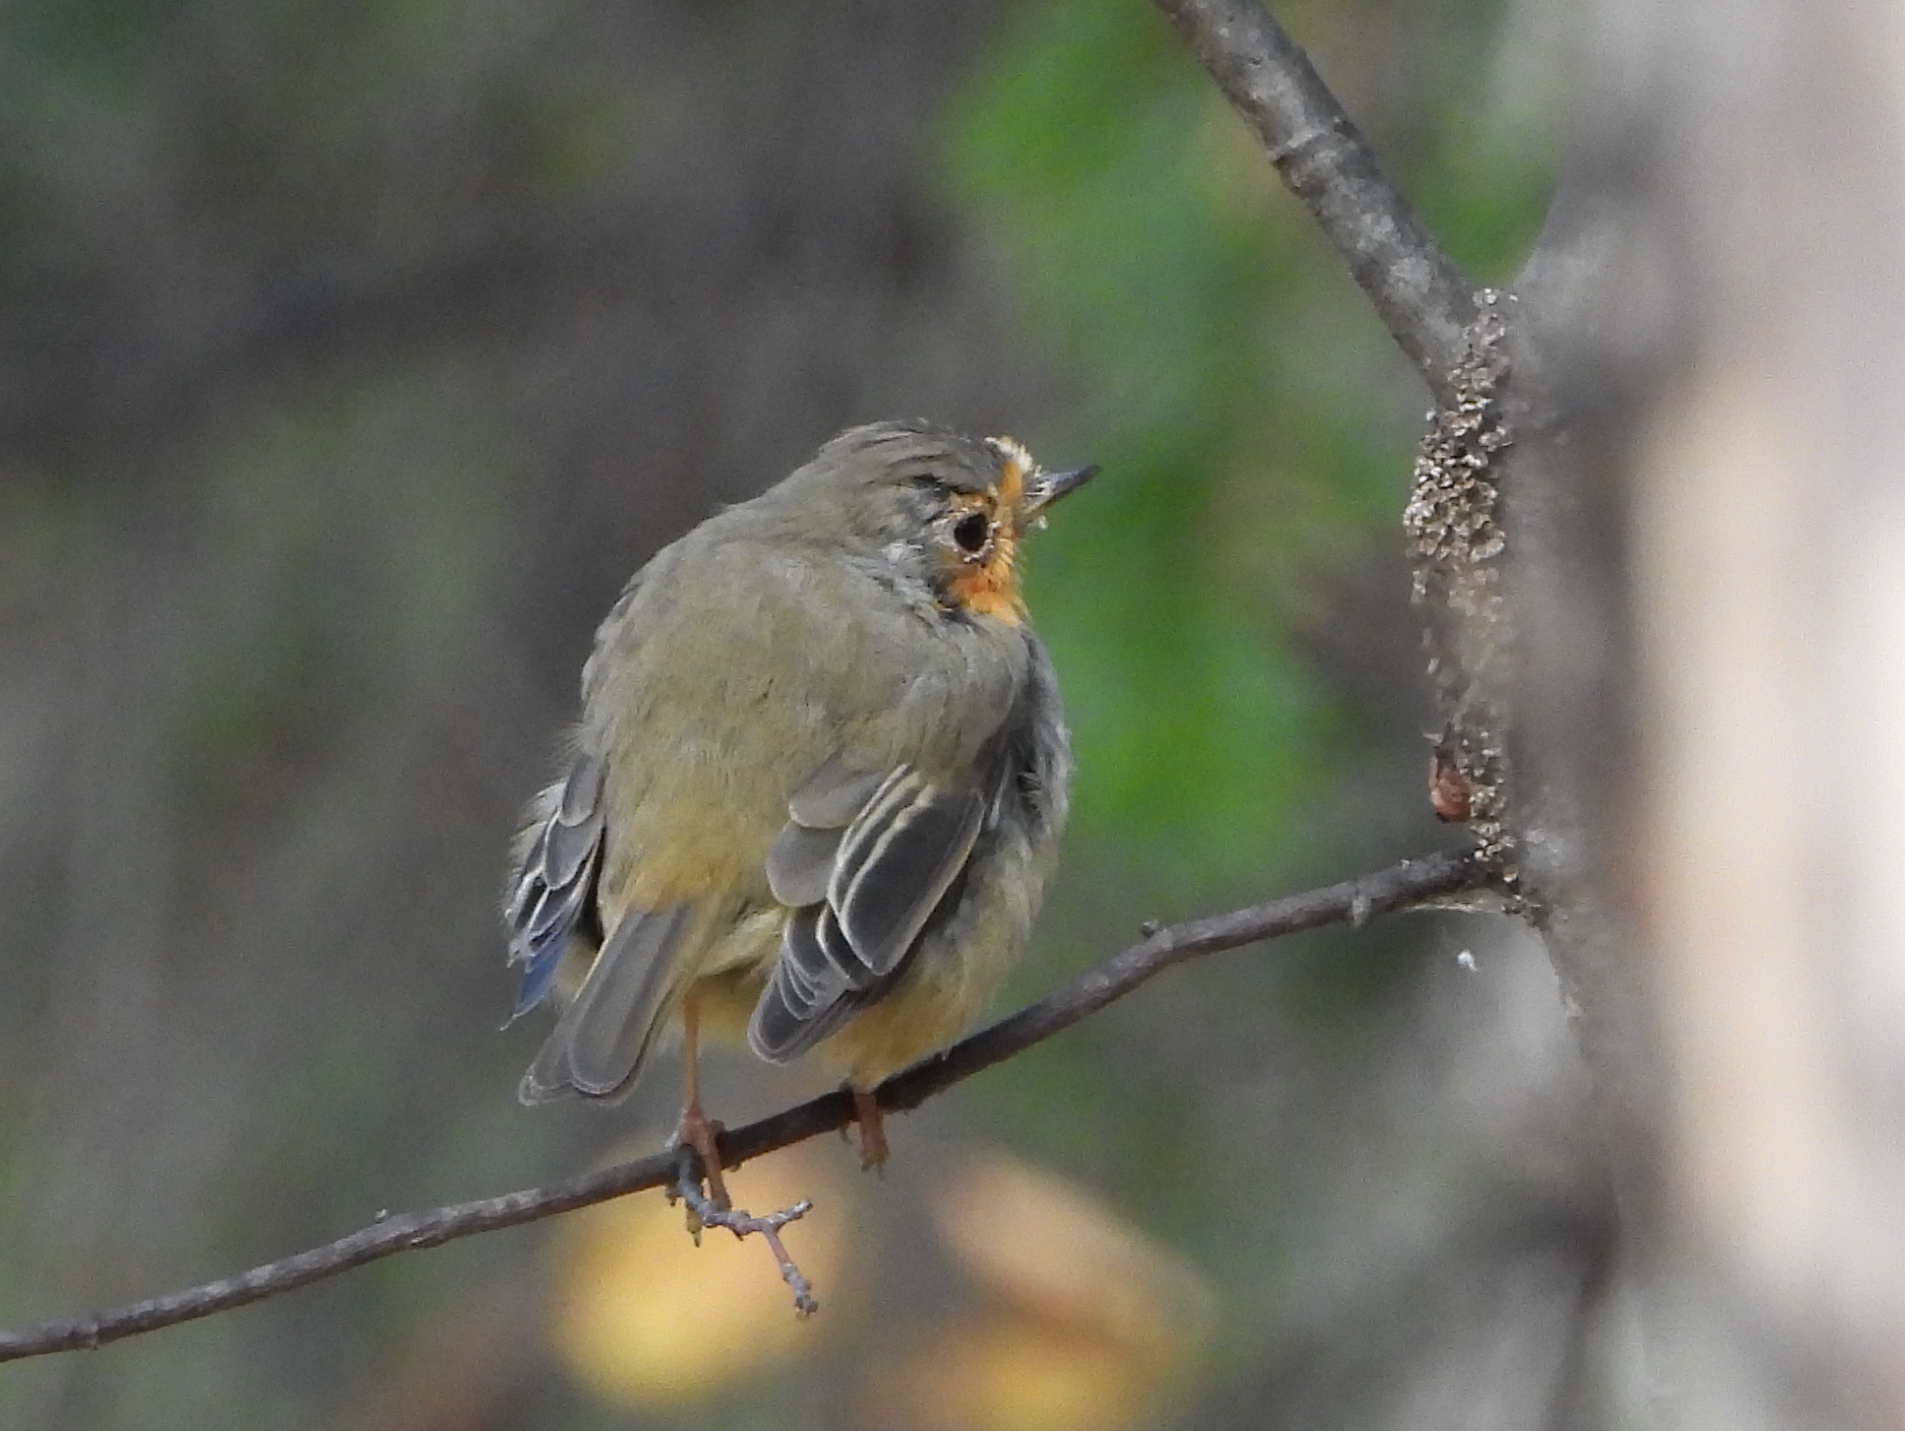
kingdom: Animalia
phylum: Chordata
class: Aves
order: Passeriformes
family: Muscicapidae
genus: Erithacus
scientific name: Erithacus rubecula
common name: European robin
